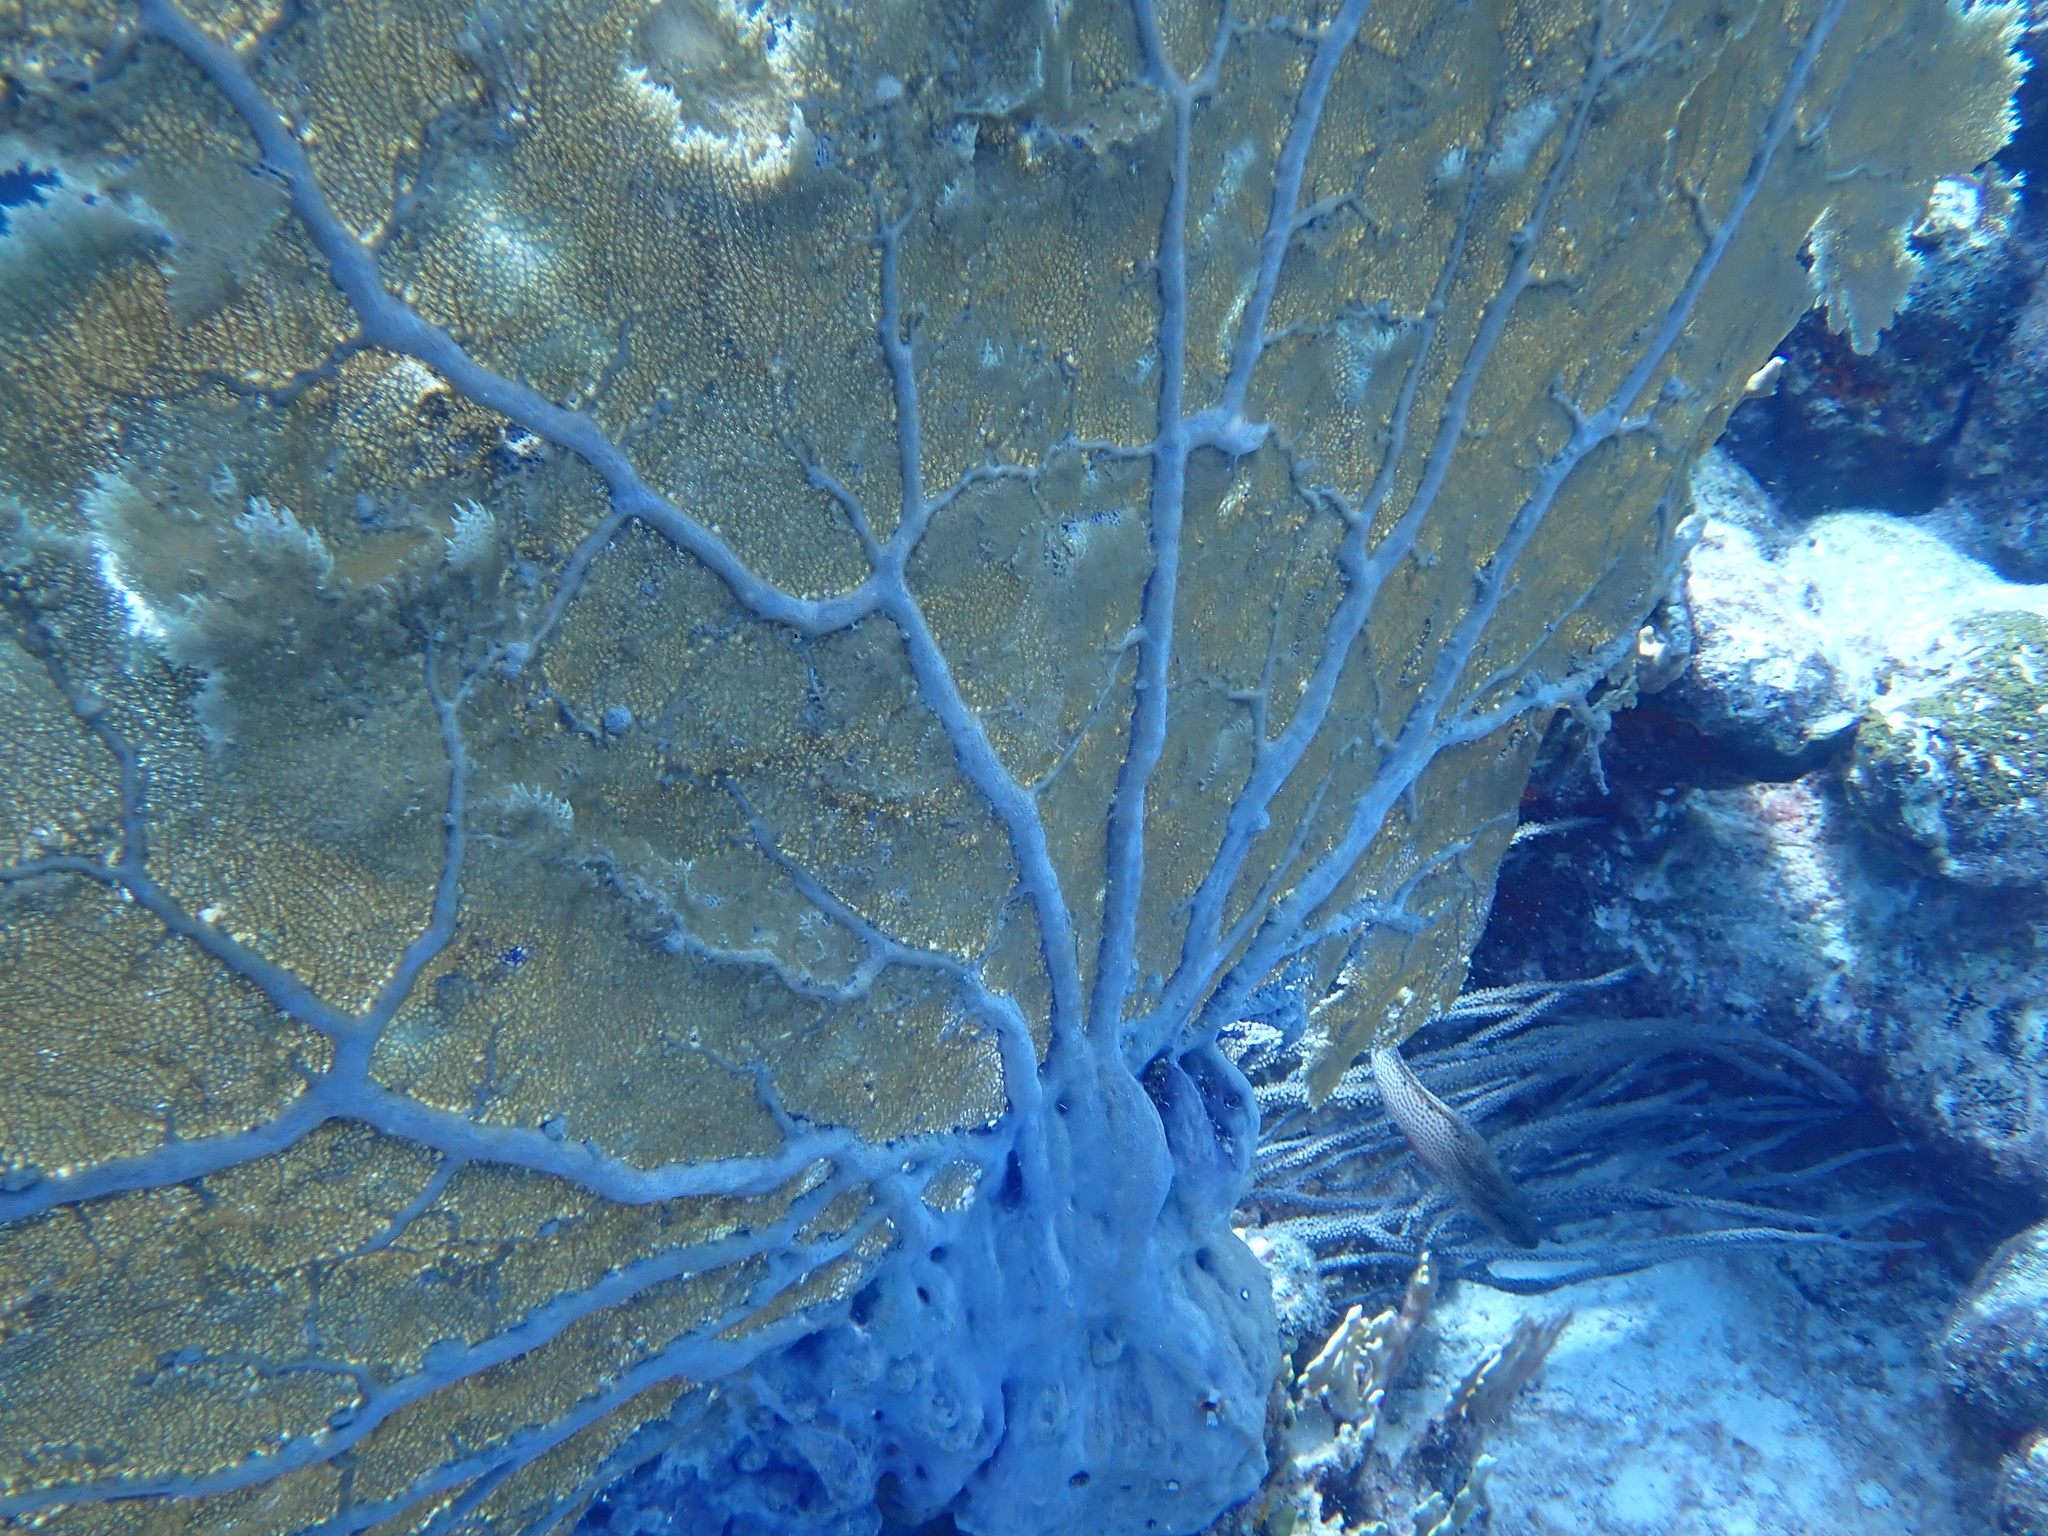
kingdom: Animalia
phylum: Cnidaria
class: Anthozoa
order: Malacalcyonacea
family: Gorgoniidae
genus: Gorgonia
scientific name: Gorgonia ventalina
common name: Common sea fan
